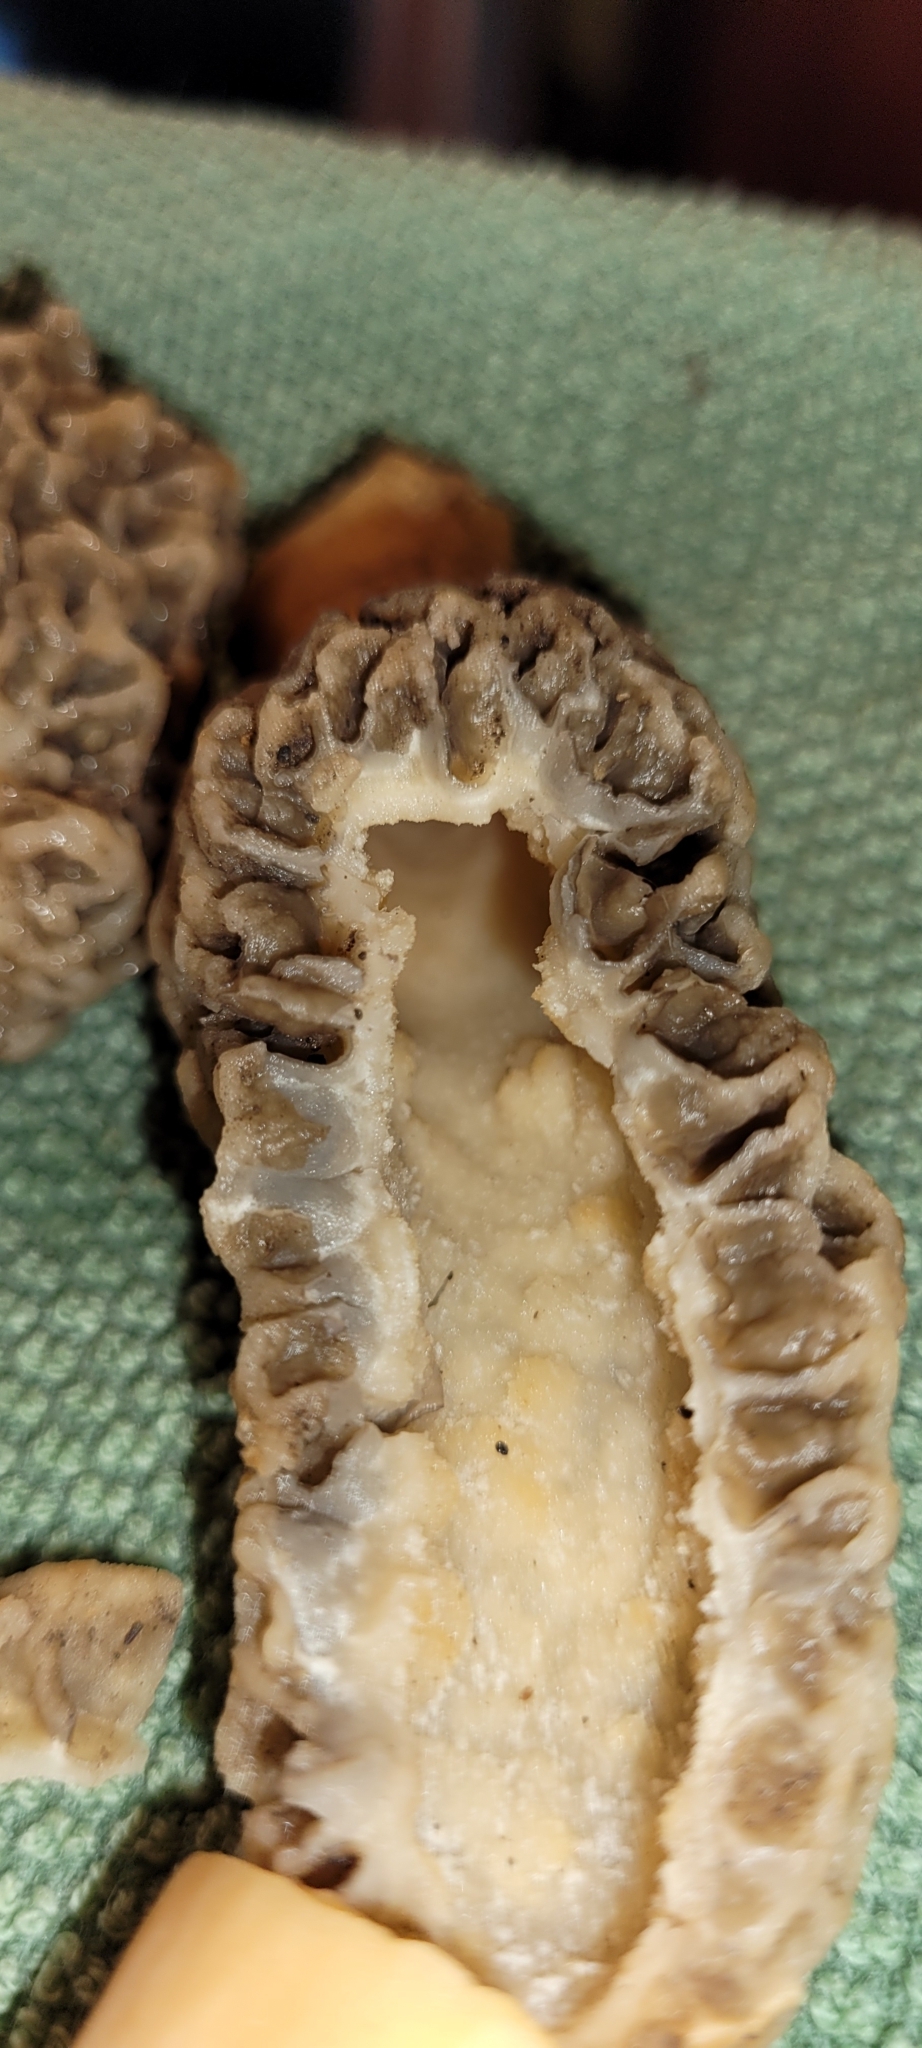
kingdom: Fungi
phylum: Ascomycota
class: Pezizomycetes
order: Pezizales
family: Morchellaceae
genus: Morchella
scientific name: Morchella americana
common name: White morel
